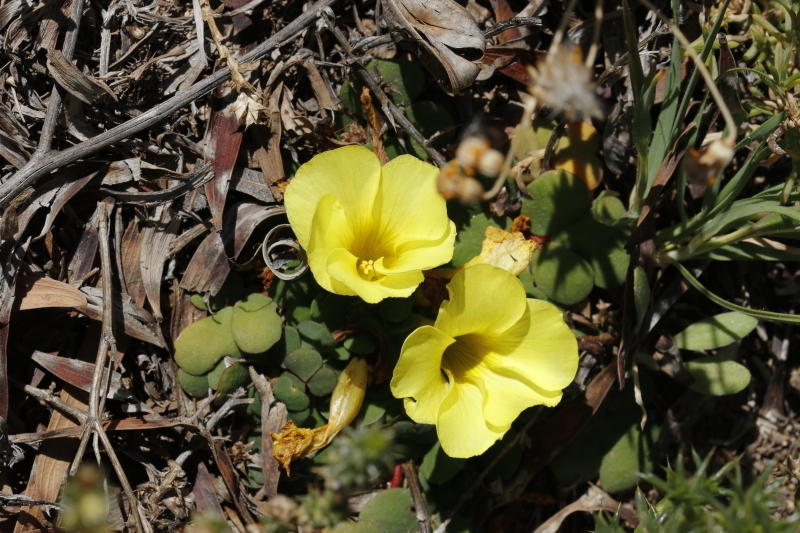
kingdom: Plantae
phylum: Tracheophyta
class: Magnoliopsida
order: Oxalidales
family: Oxalidaceae
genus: Oxalis
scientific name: Oxalis purpurea
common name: Purple woodsorrel
